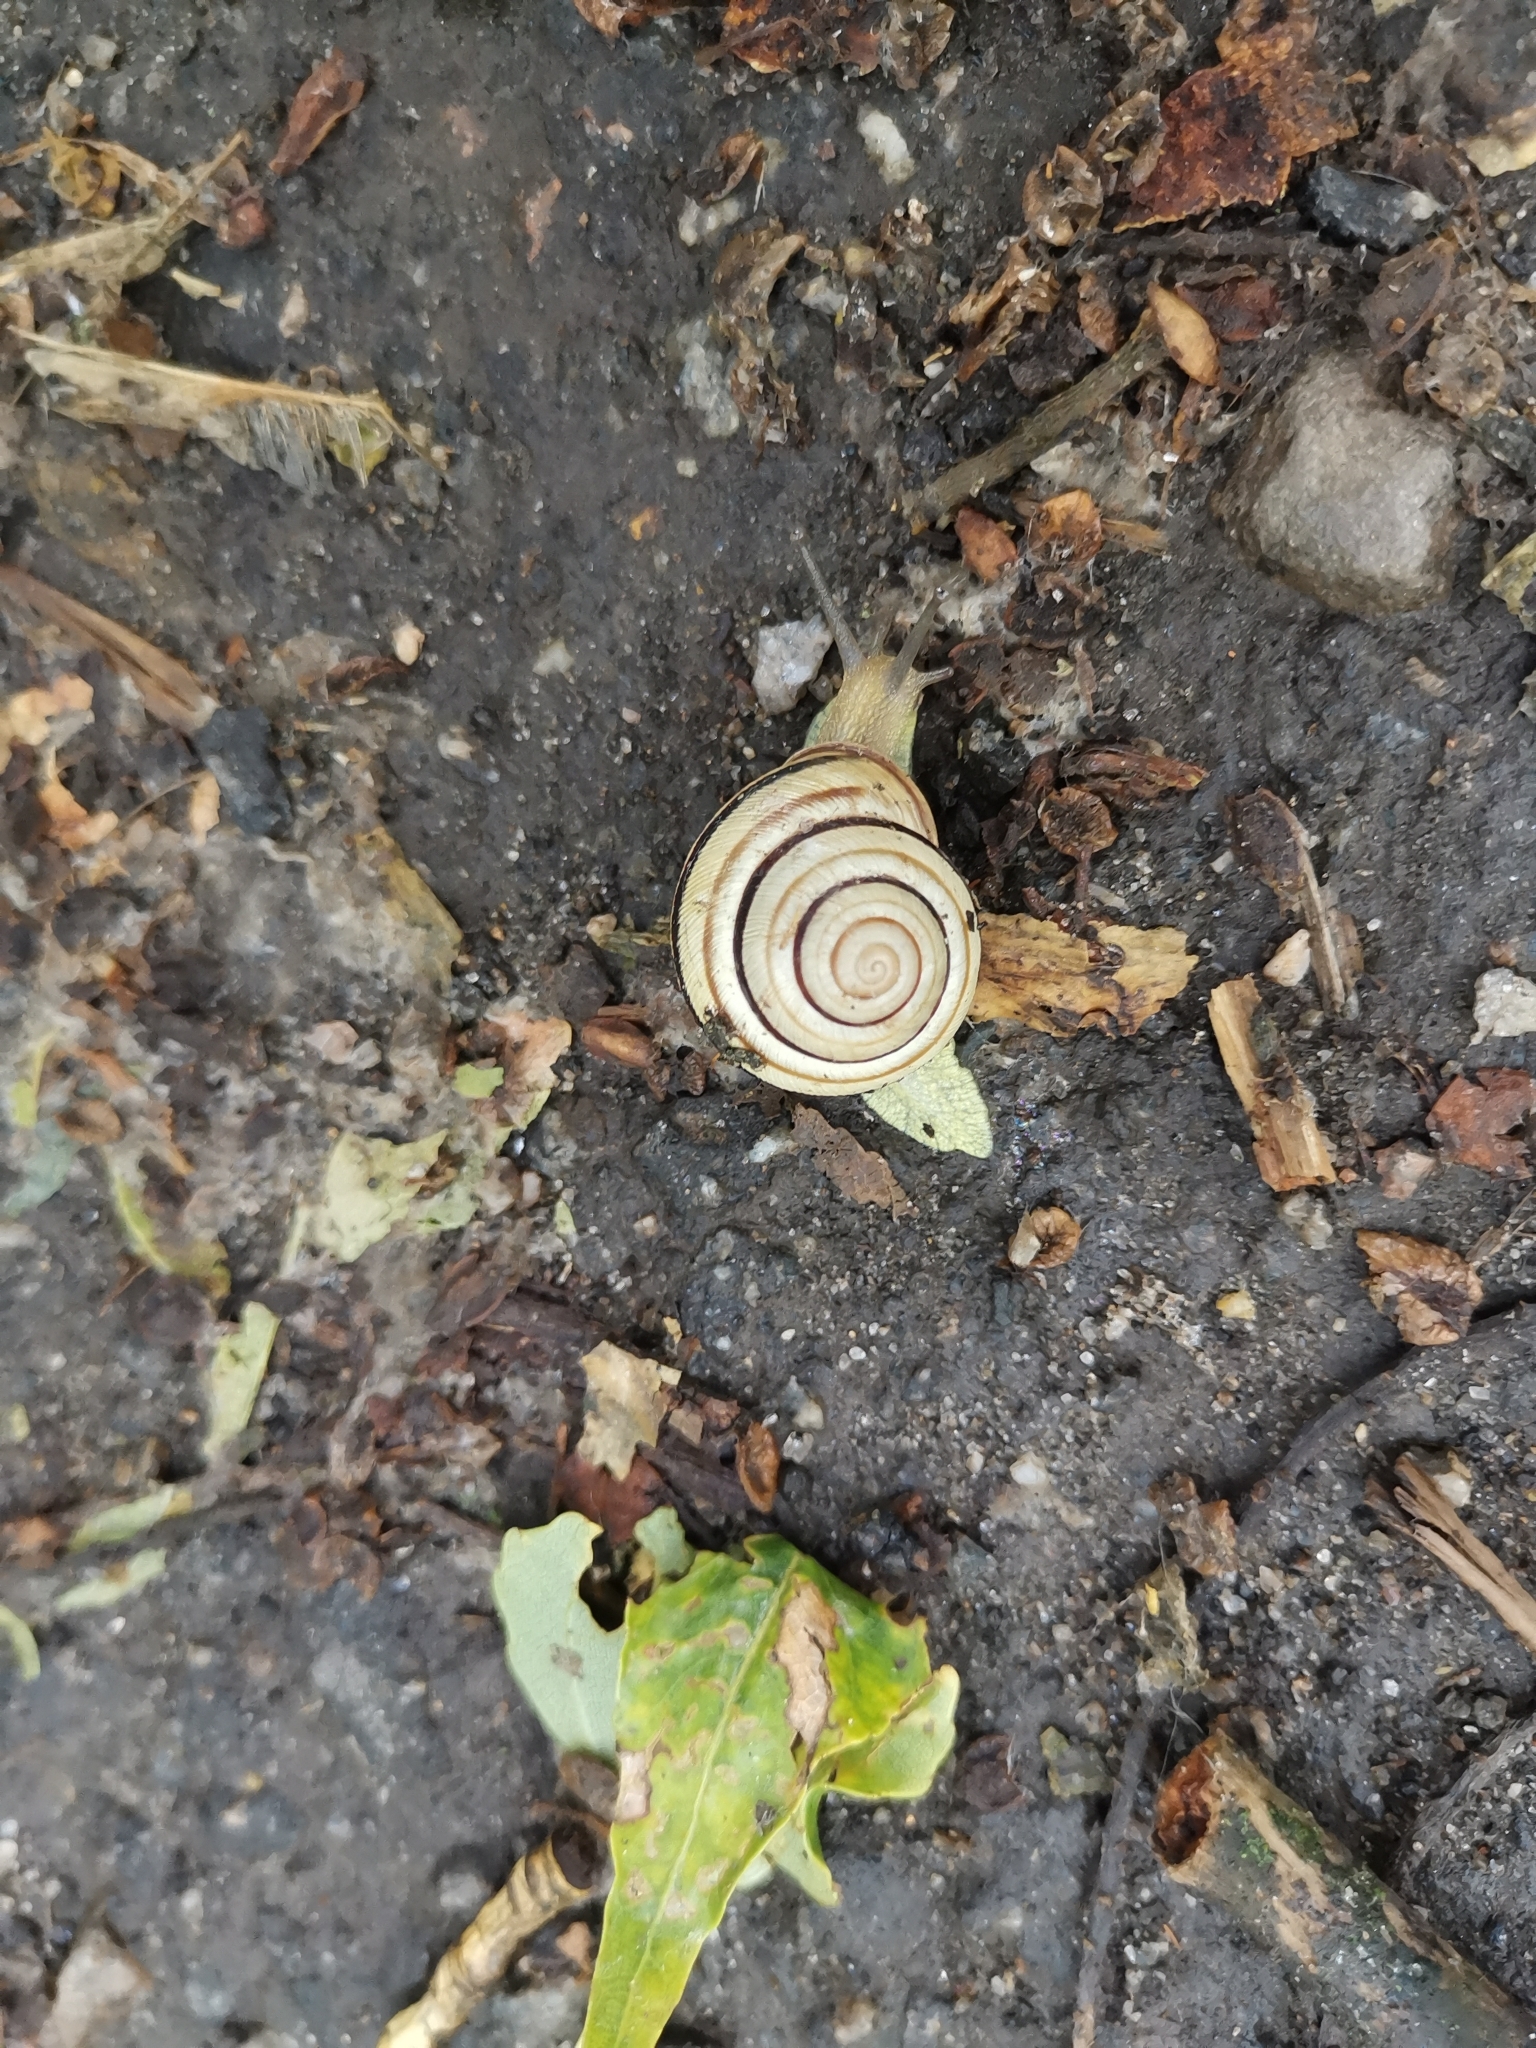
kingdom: Animalia
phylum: Mollusca
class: Gastropoda
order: Stylommatophora
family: Helicidae
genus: Caucasotachea
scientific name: Caucasotachea vindobonensis
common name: European helicid land snail
